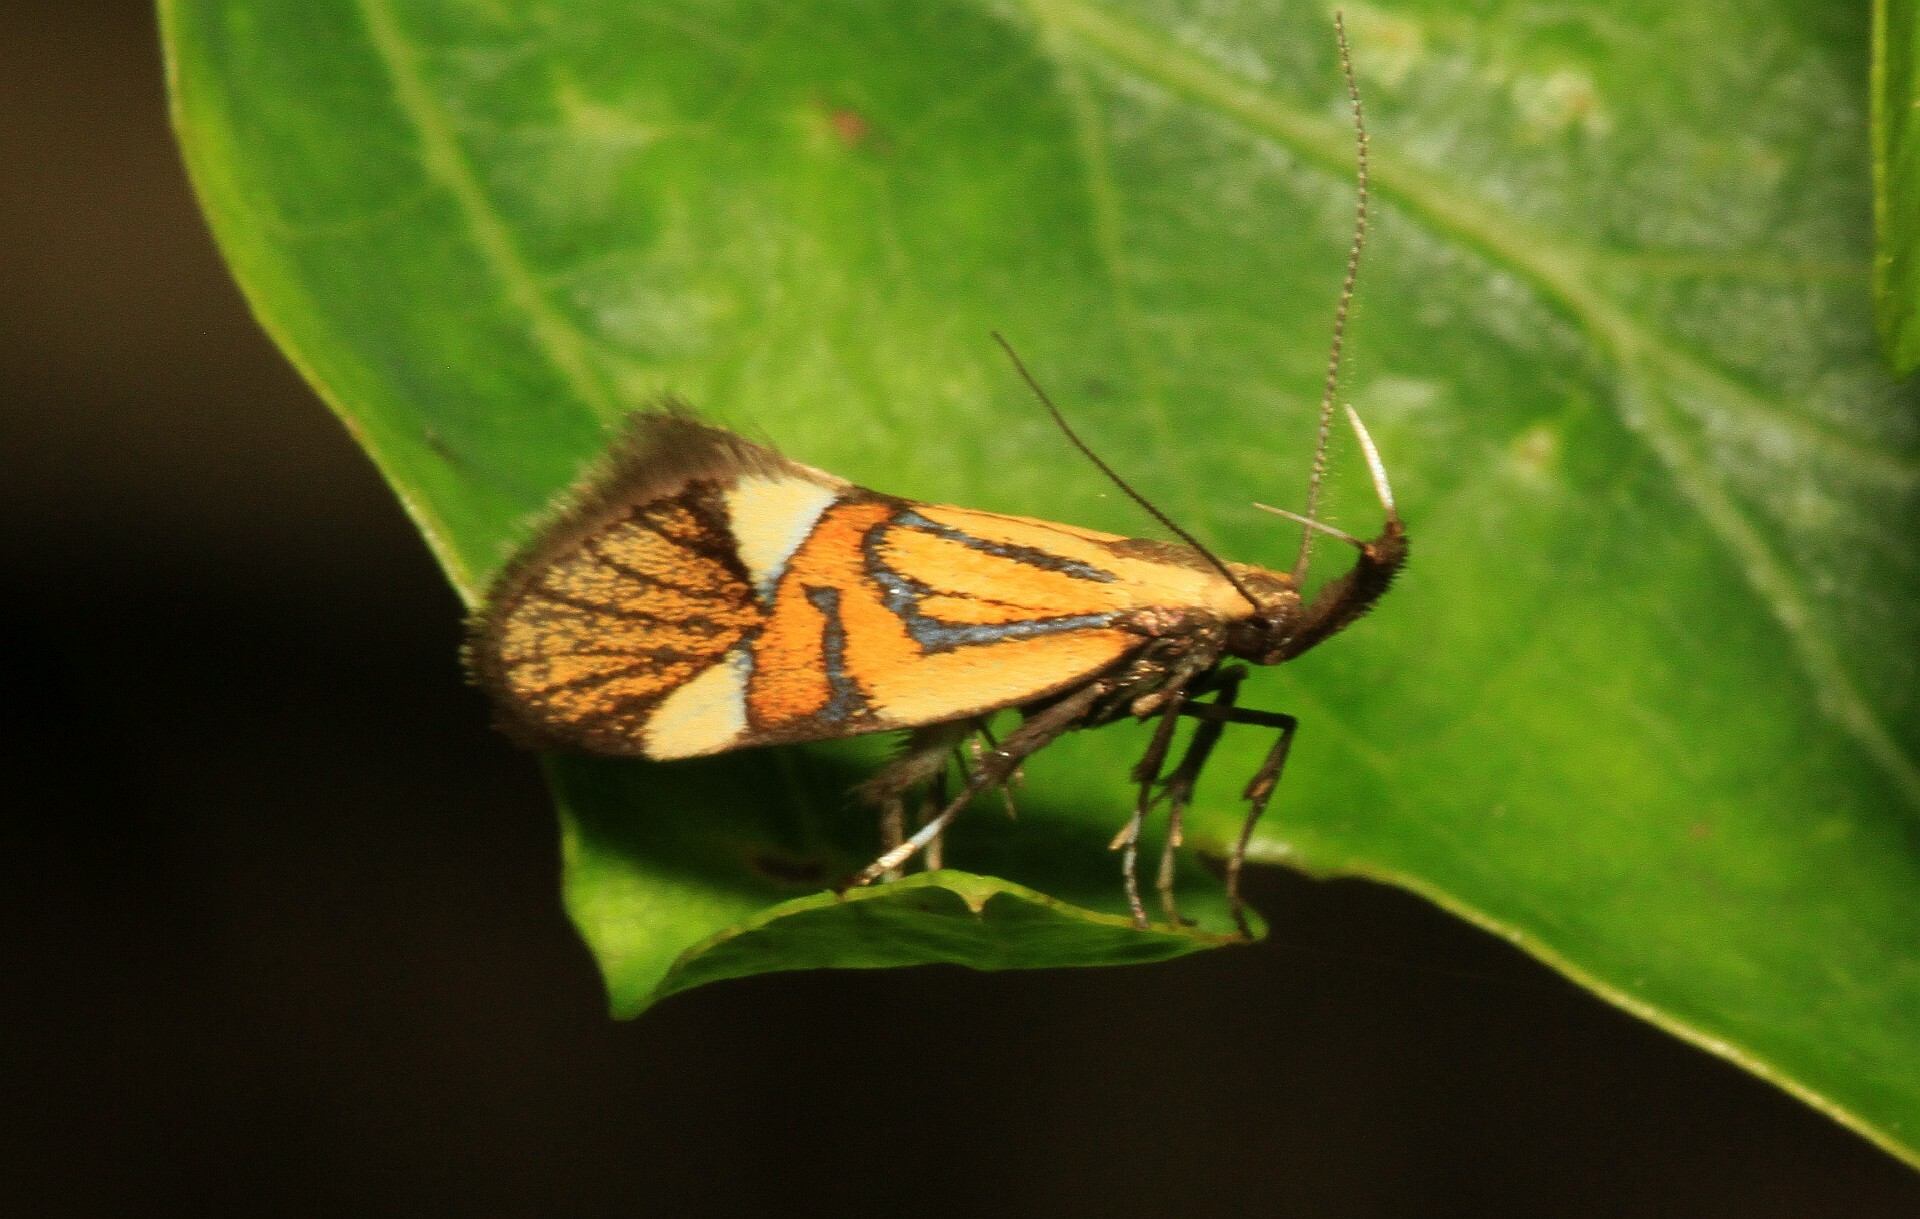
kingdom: Animalia
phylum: Arthropoda
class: Insecta
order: Lepidoptera
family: Oecophoridae
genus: Oecophora
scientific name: Oecophora Alabonia geoffrella
